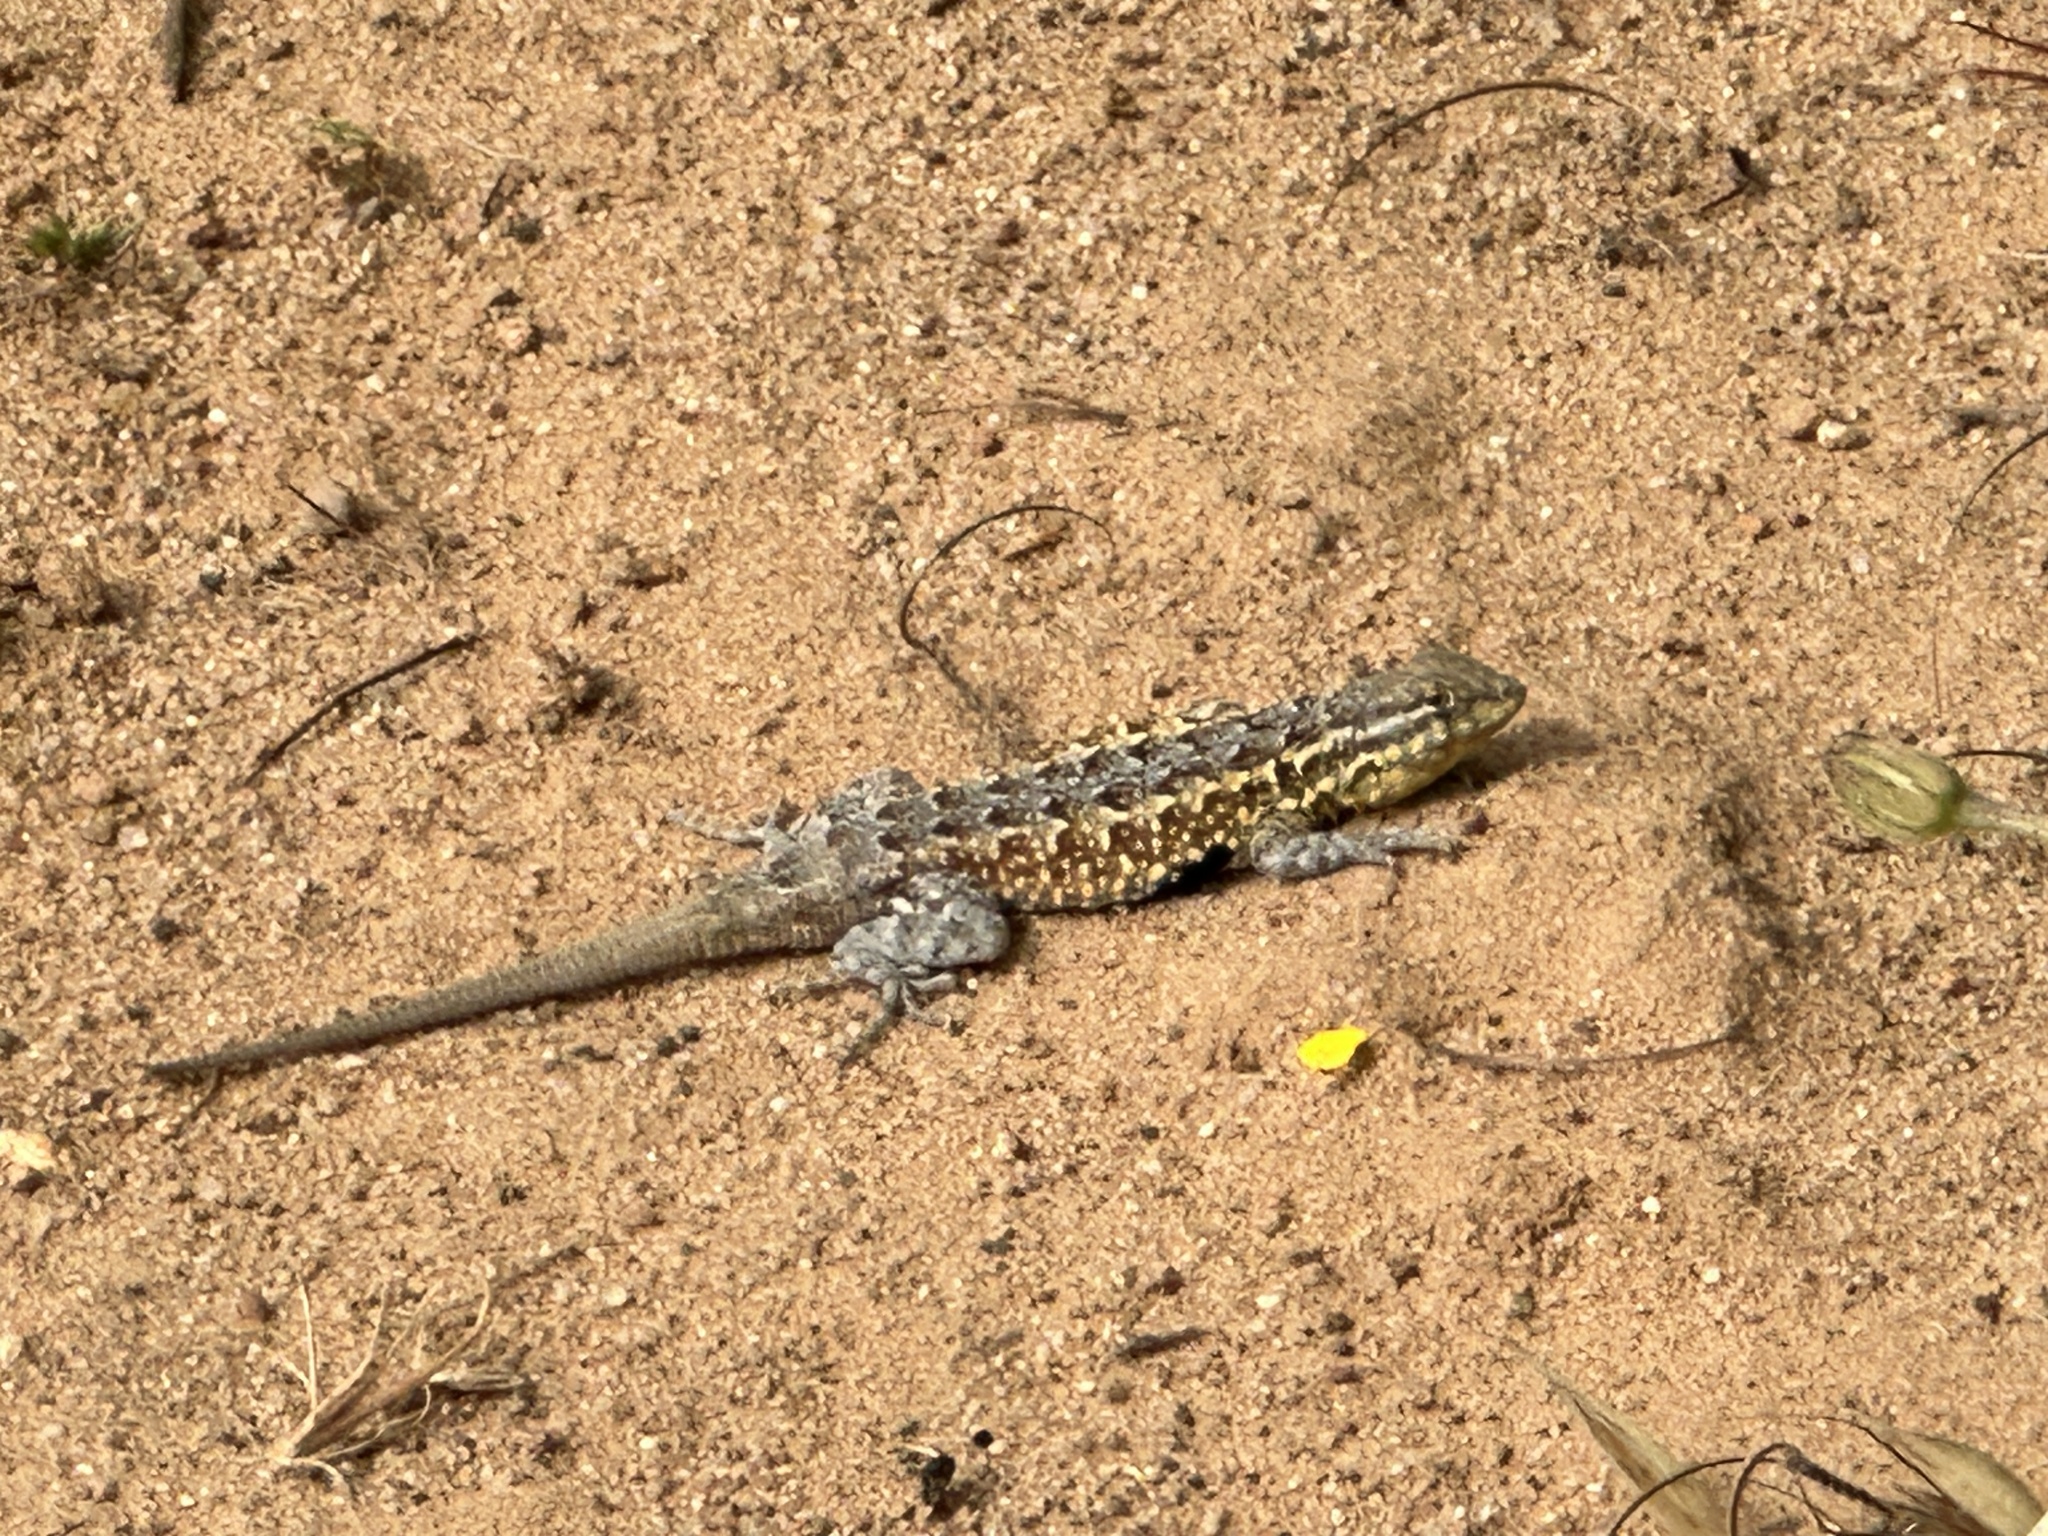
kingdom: Animalia
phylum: Chordata
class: Squamata
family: Phrynosomatidae
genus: Uta
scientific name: Uta stansburiana
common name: Side-blotched lizard
